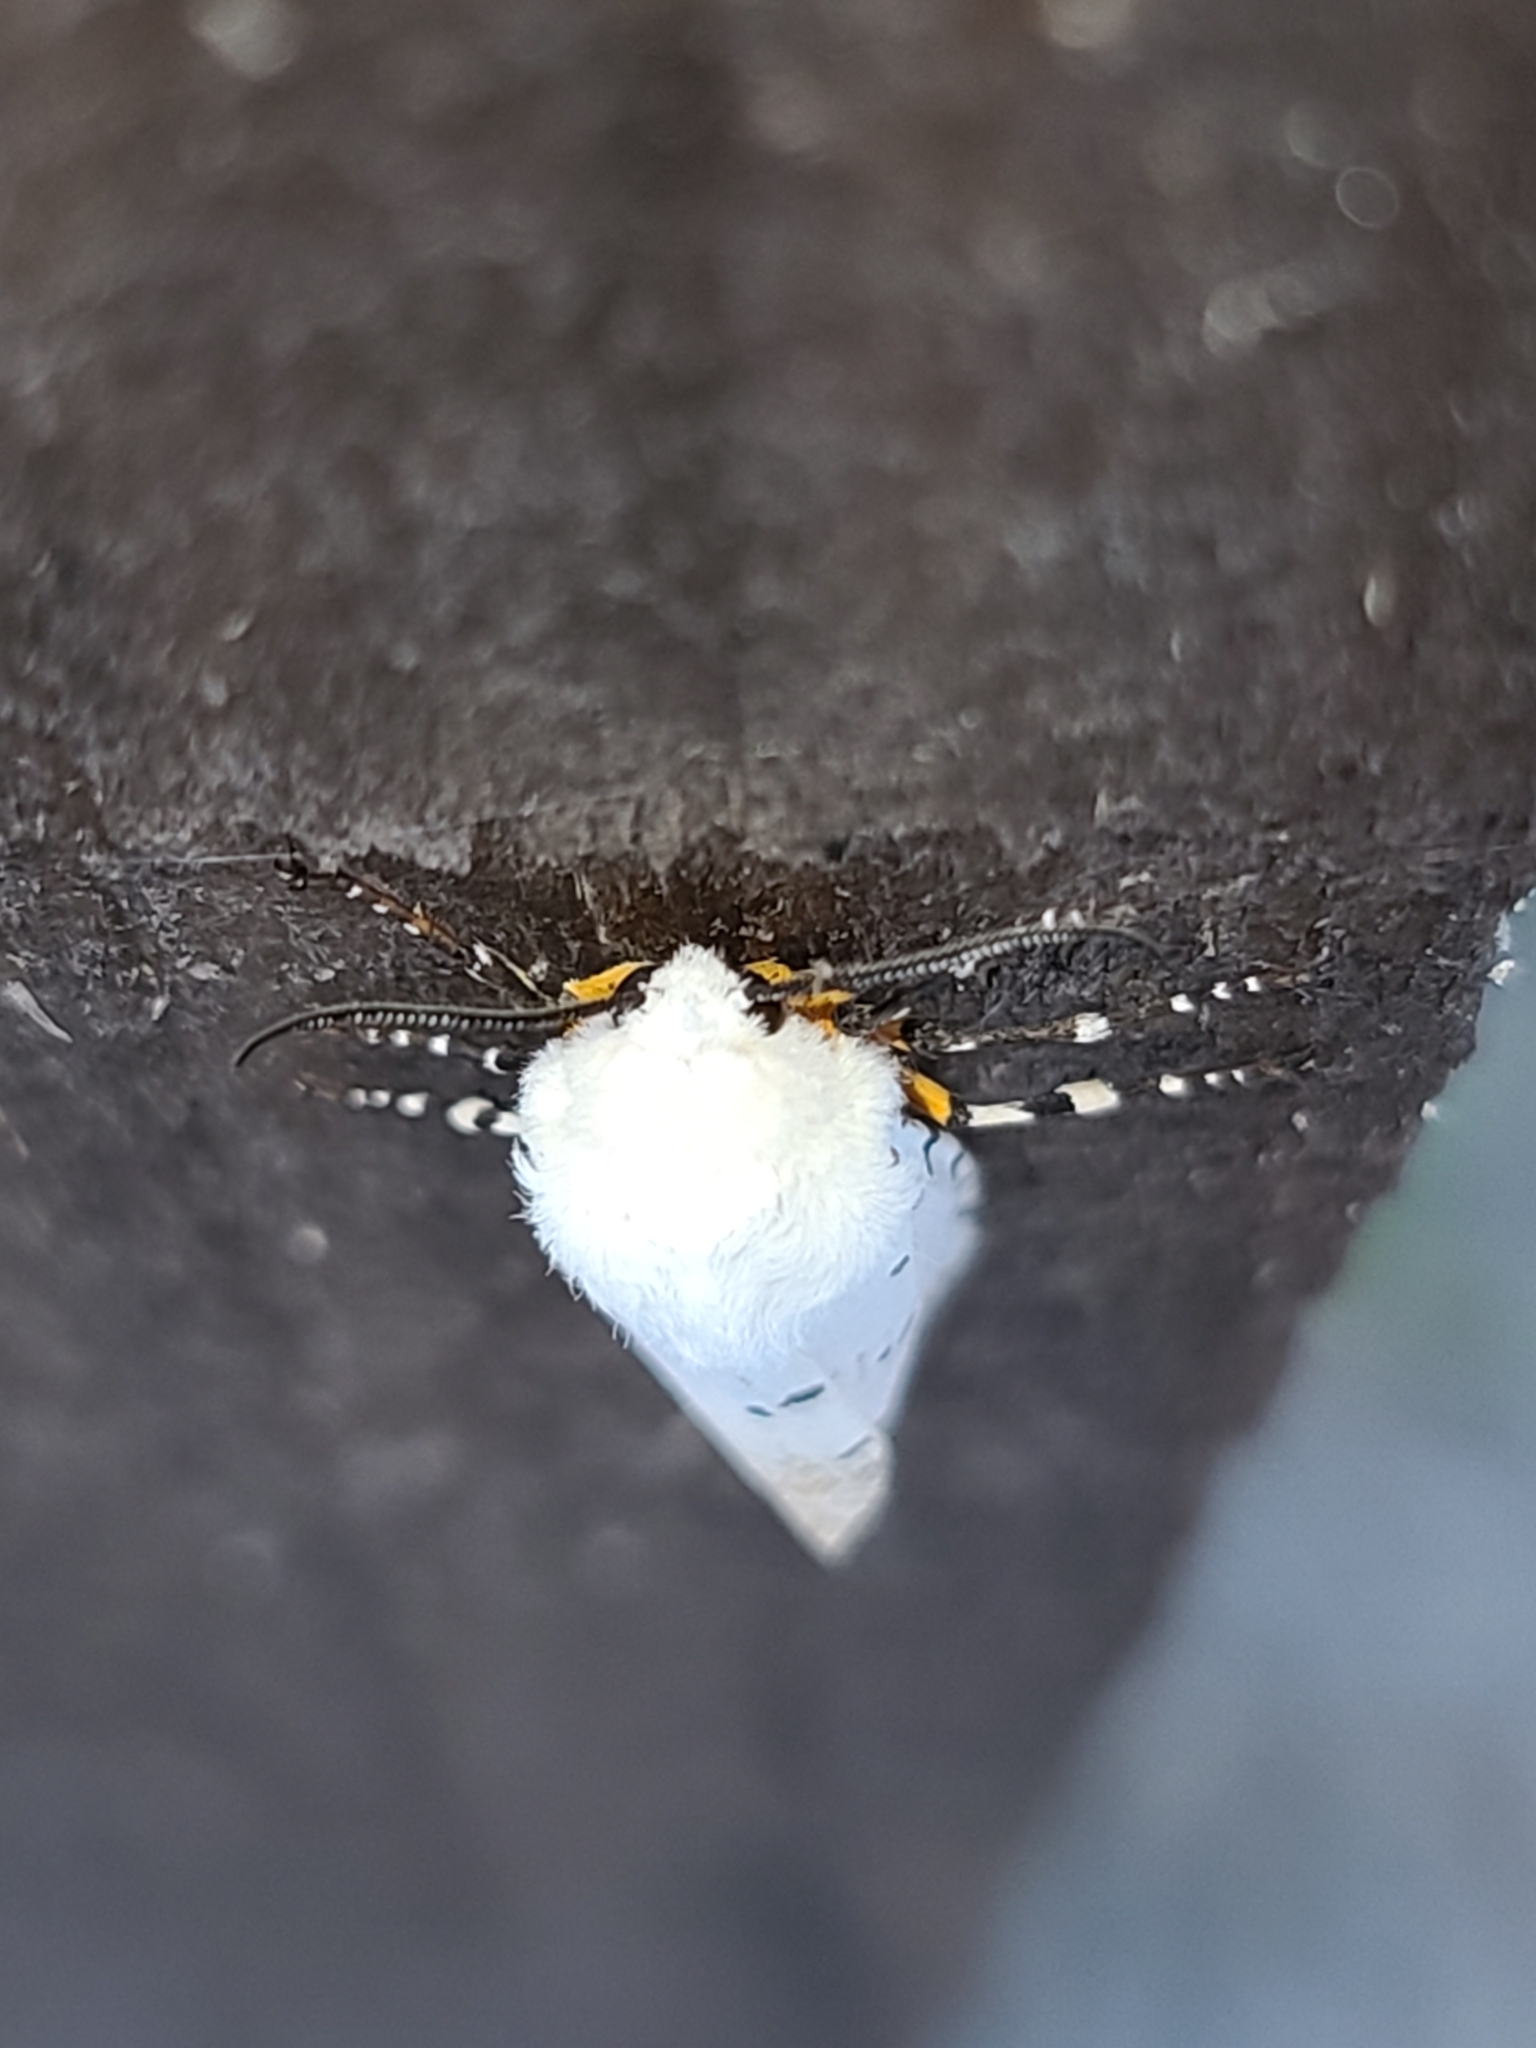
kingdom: Animalia
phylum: Arthropoda
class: Insecta
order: Lepidoptera
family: Erebidae
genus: Estigmene
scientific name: Estigmene acrea
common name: Salt marsh moth
